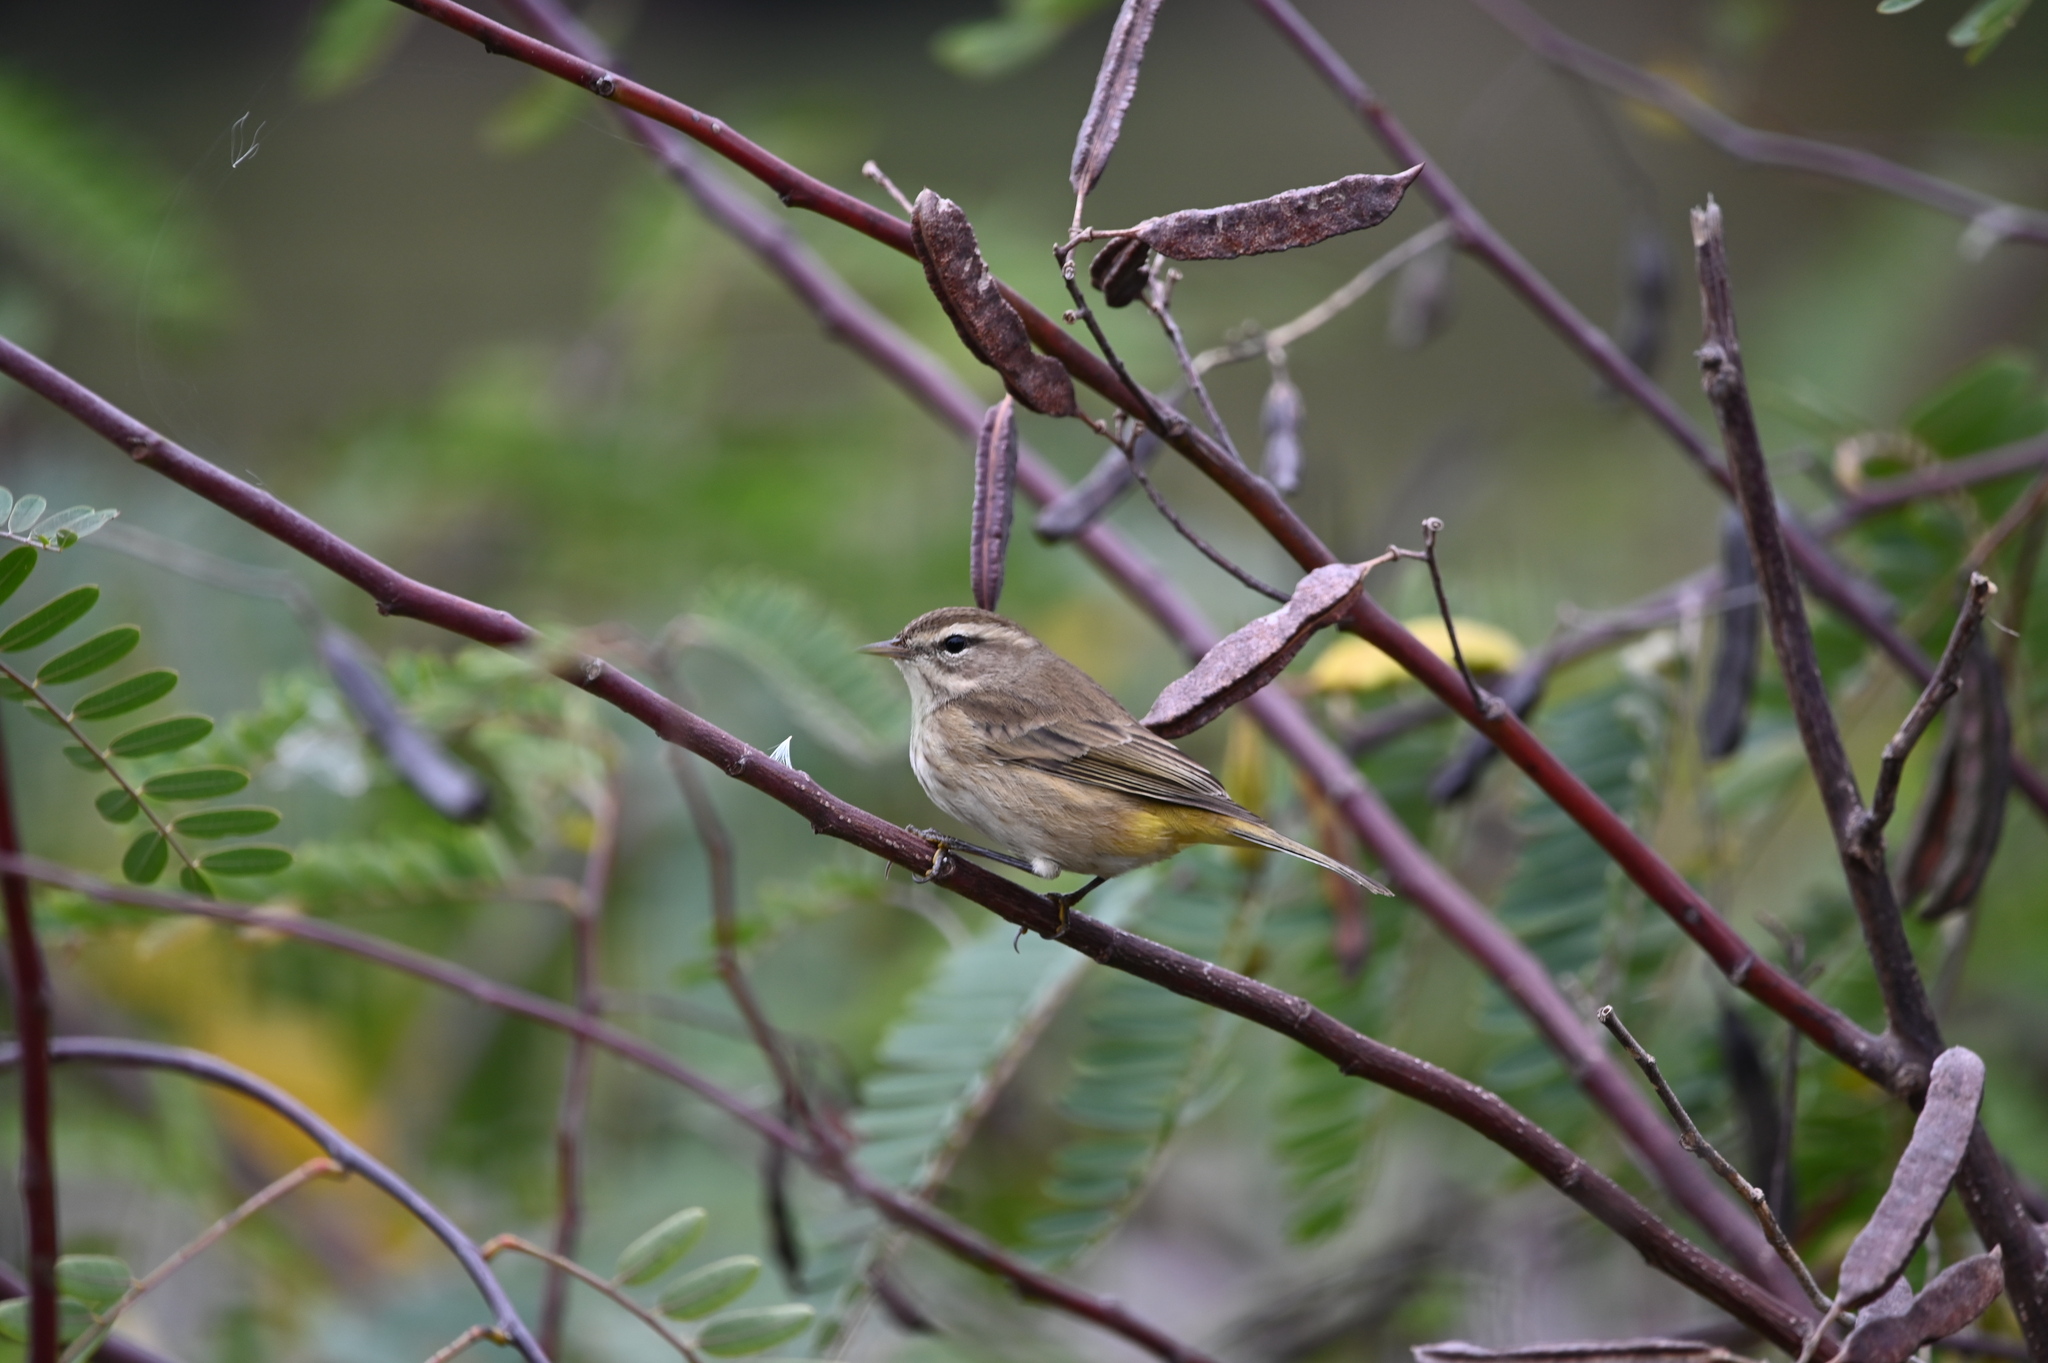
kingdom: Animalia
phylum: Chordata
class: Aves
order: Passeriformes
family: Parulidae
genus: Setophaga
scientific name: Setophaga palmarum
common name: Palm warbler
